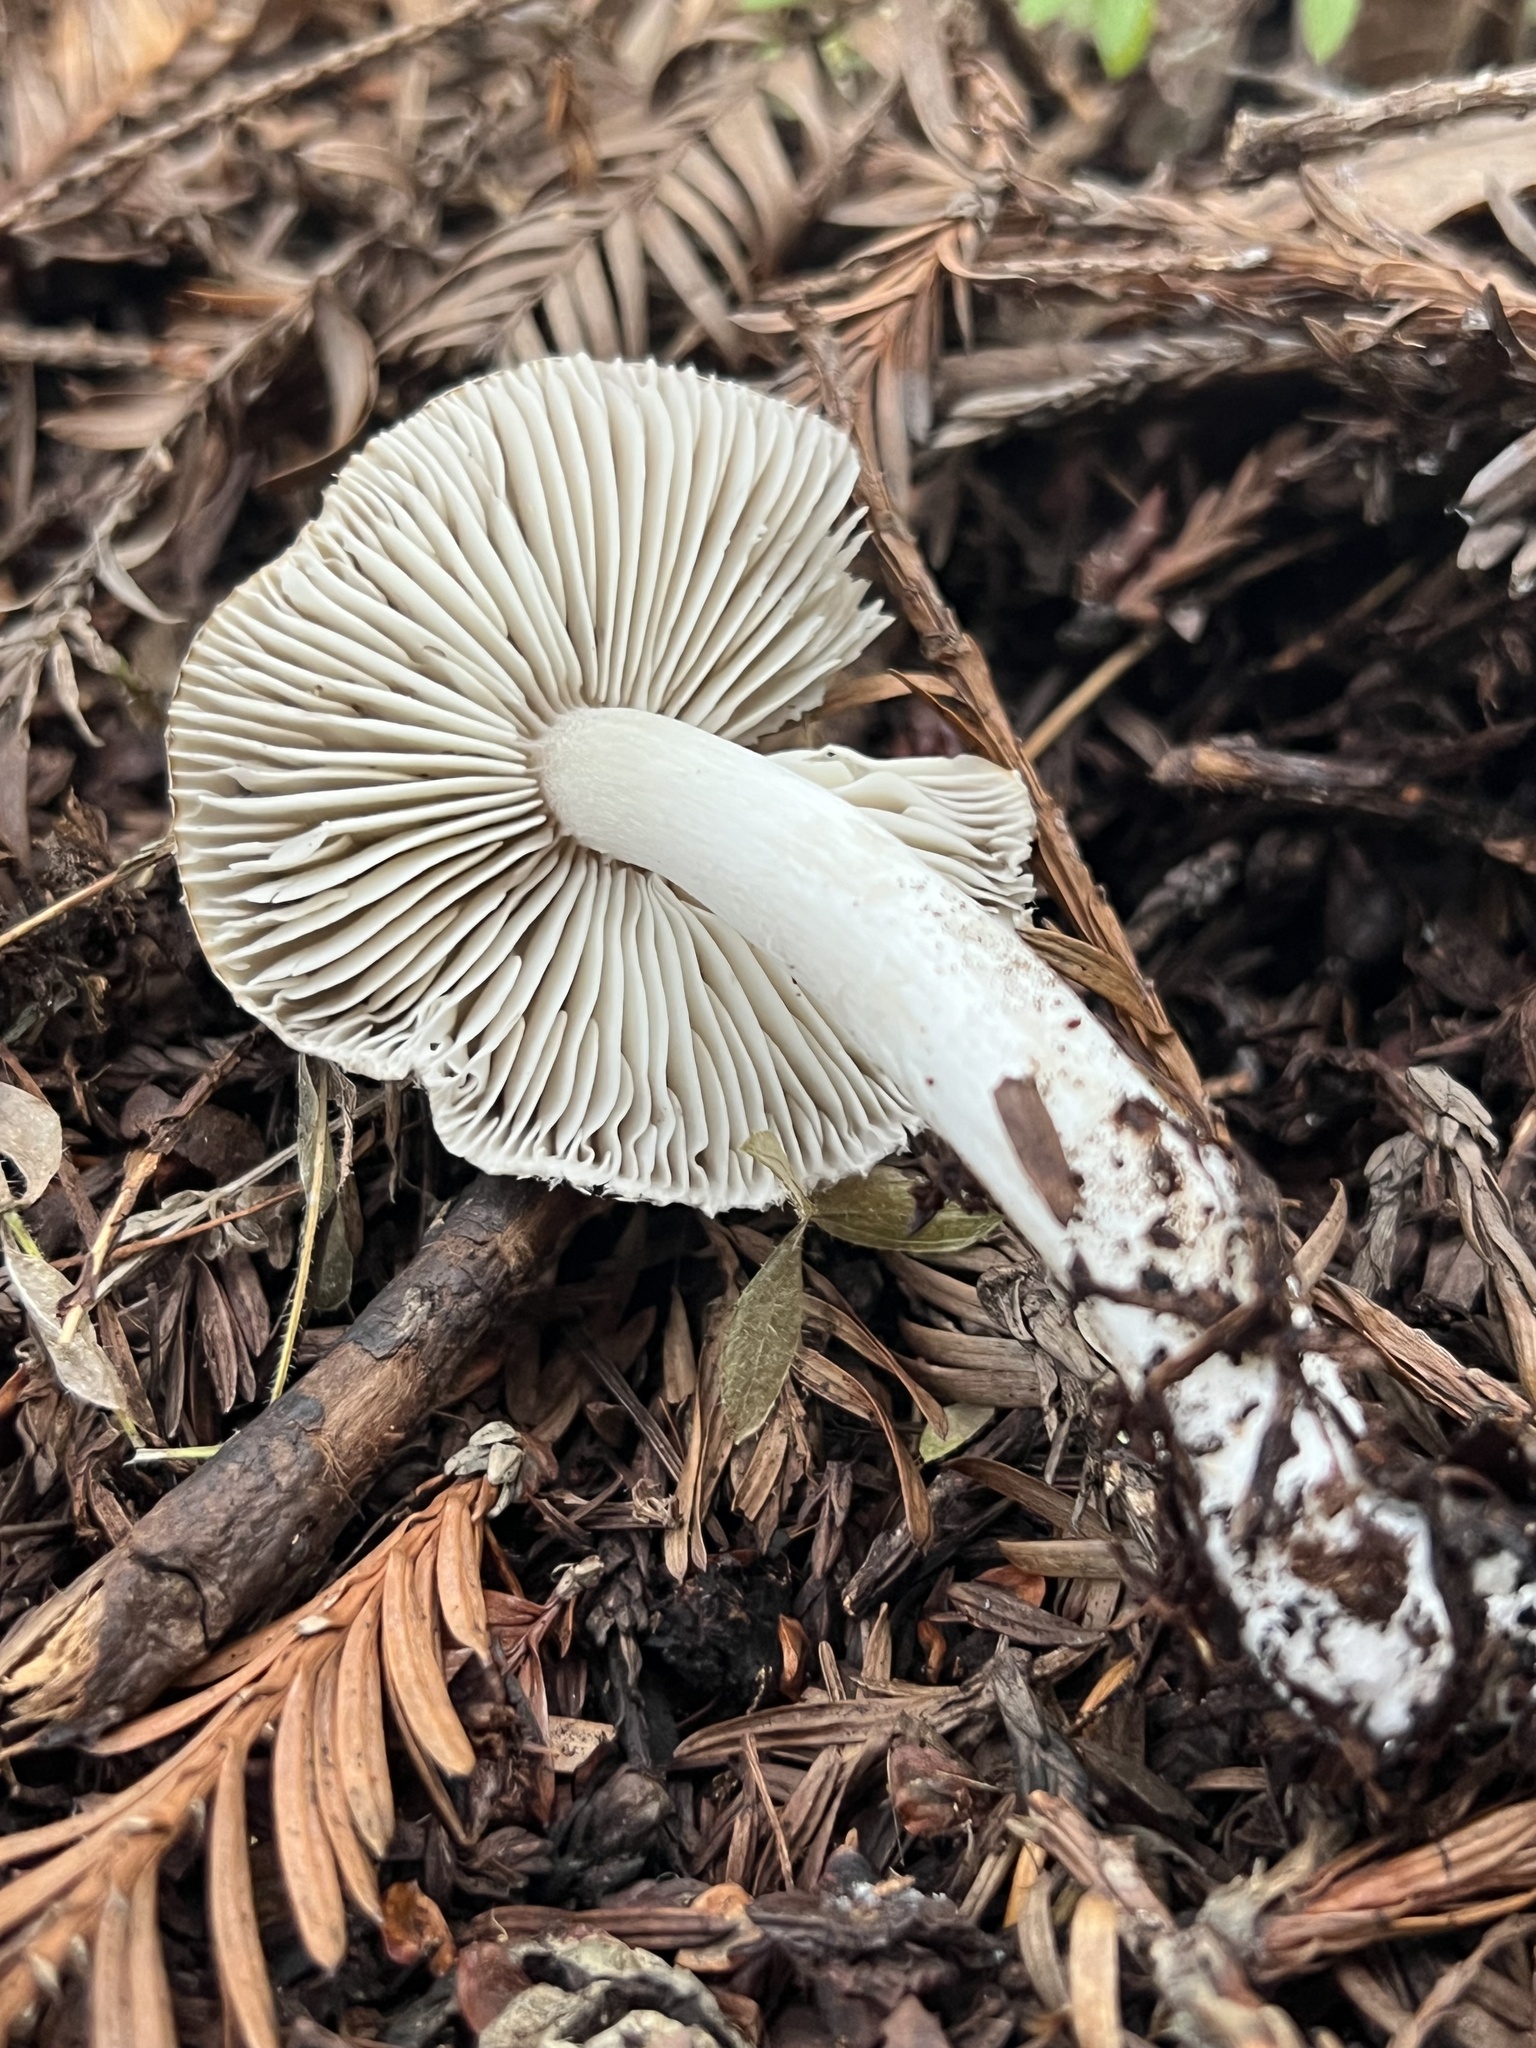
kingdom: Fungi
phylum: Basidiomycota
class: Agaricomycetes
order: Agaricales
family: Tricholomataceae
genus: Tricholoma
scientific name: Tricholoma terreum
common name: Grey knight
